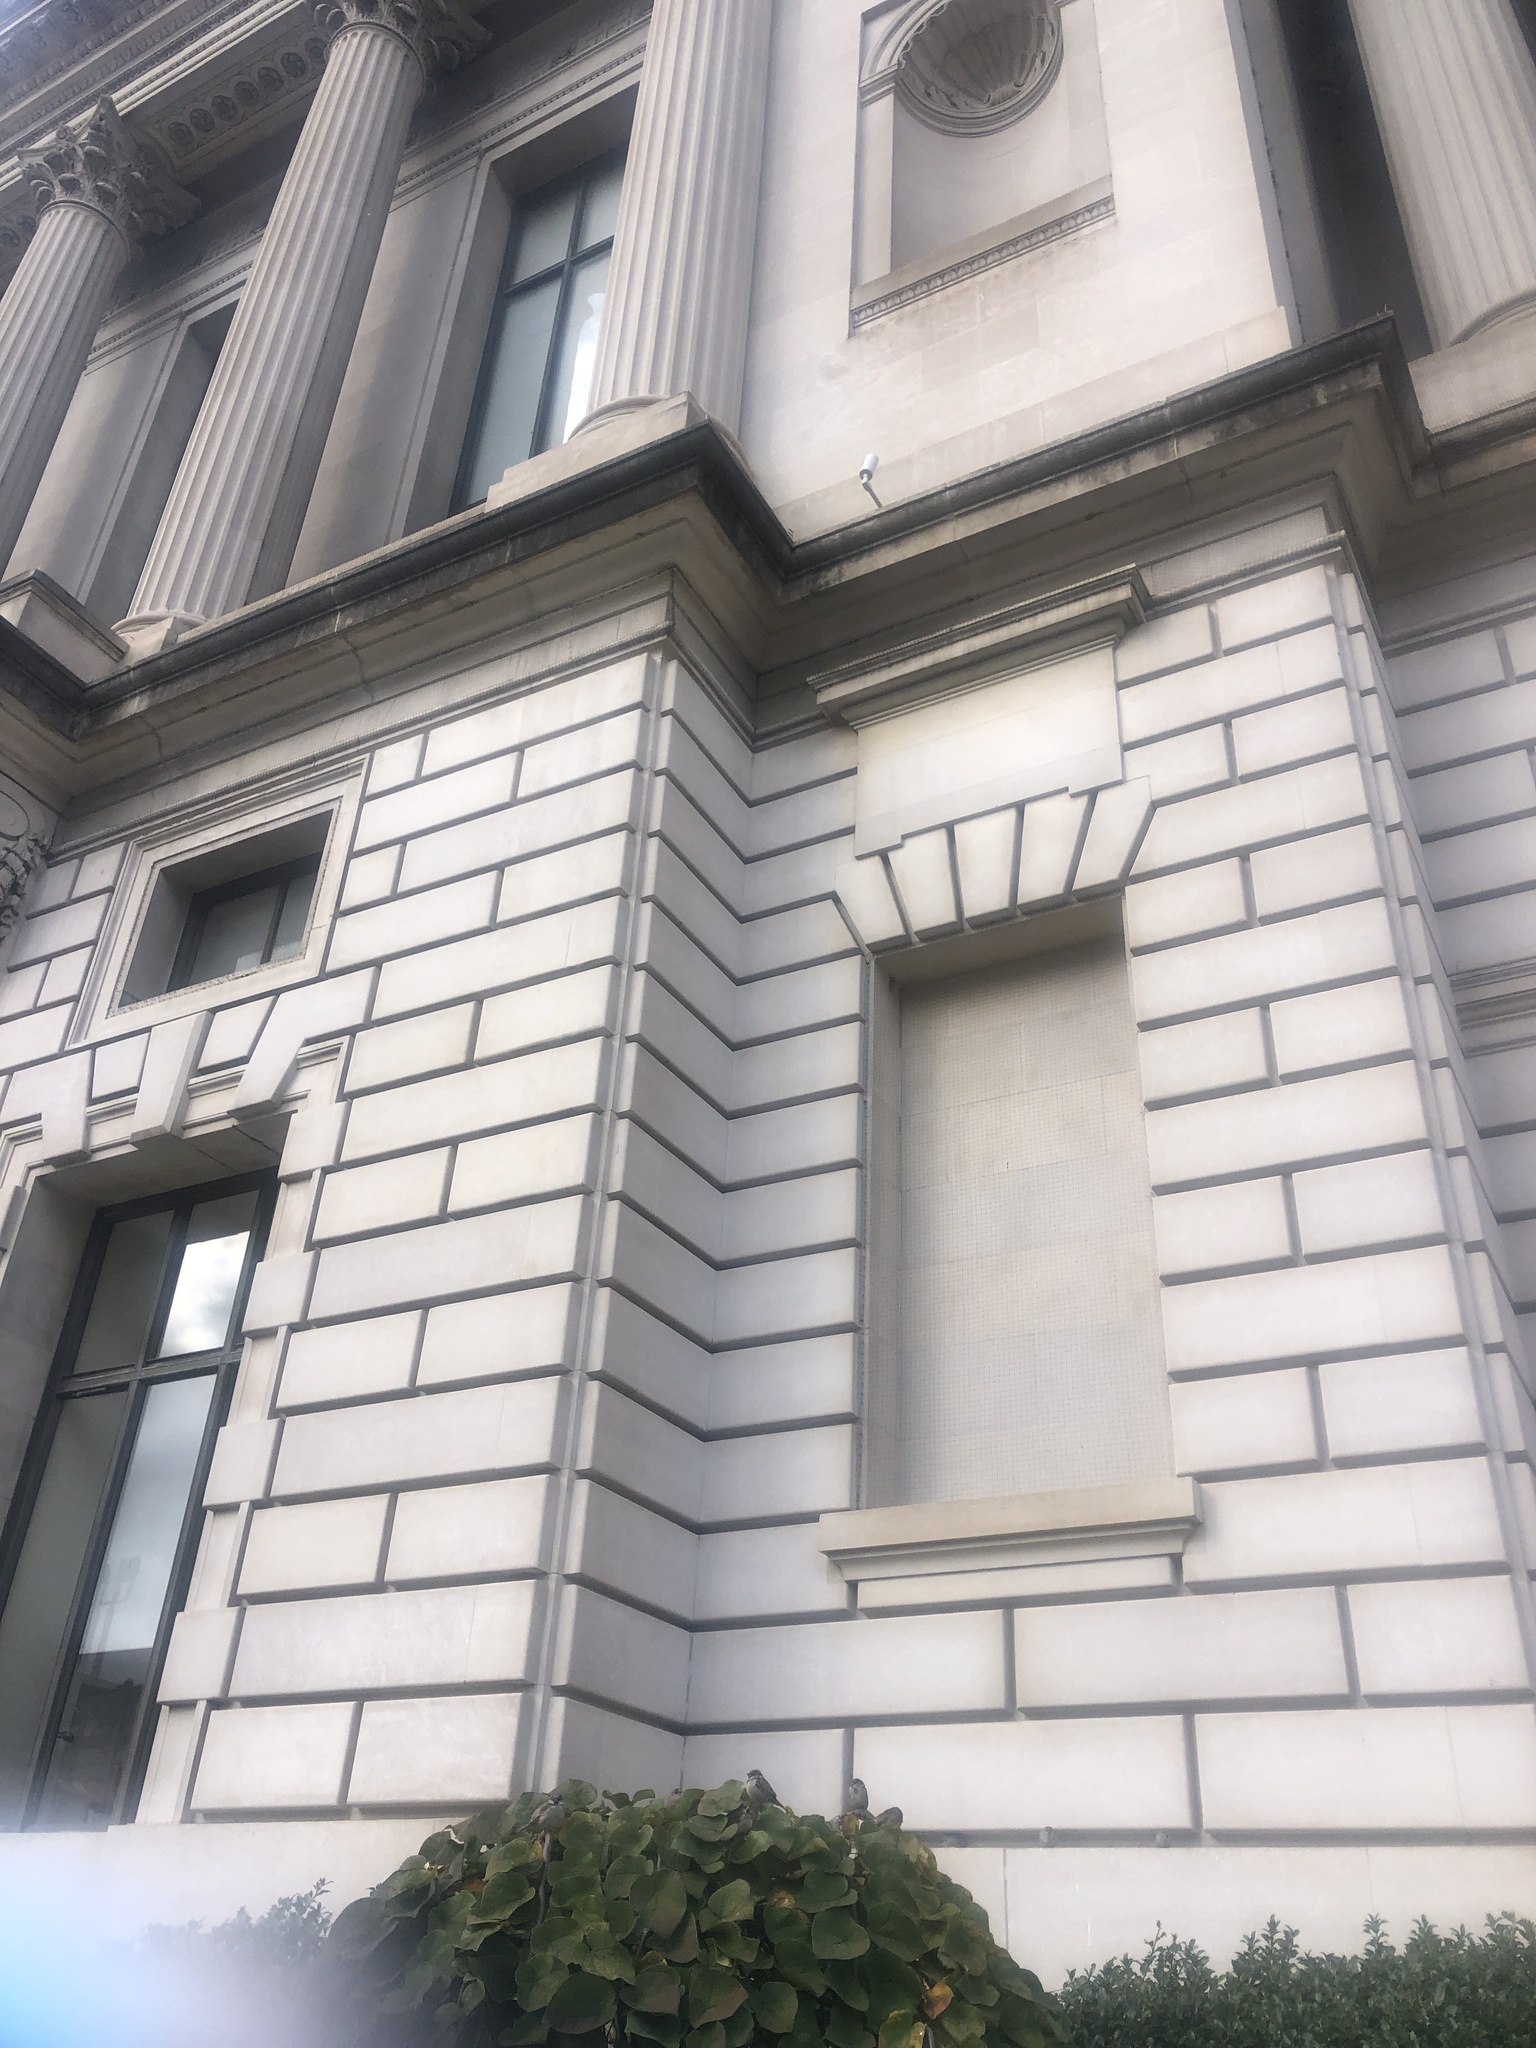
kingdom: Animalia
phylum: Chordata
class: Aves
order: Passeriformes
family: Passeridae
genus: Passer
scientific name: Passer domesticus
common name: House sparrow
